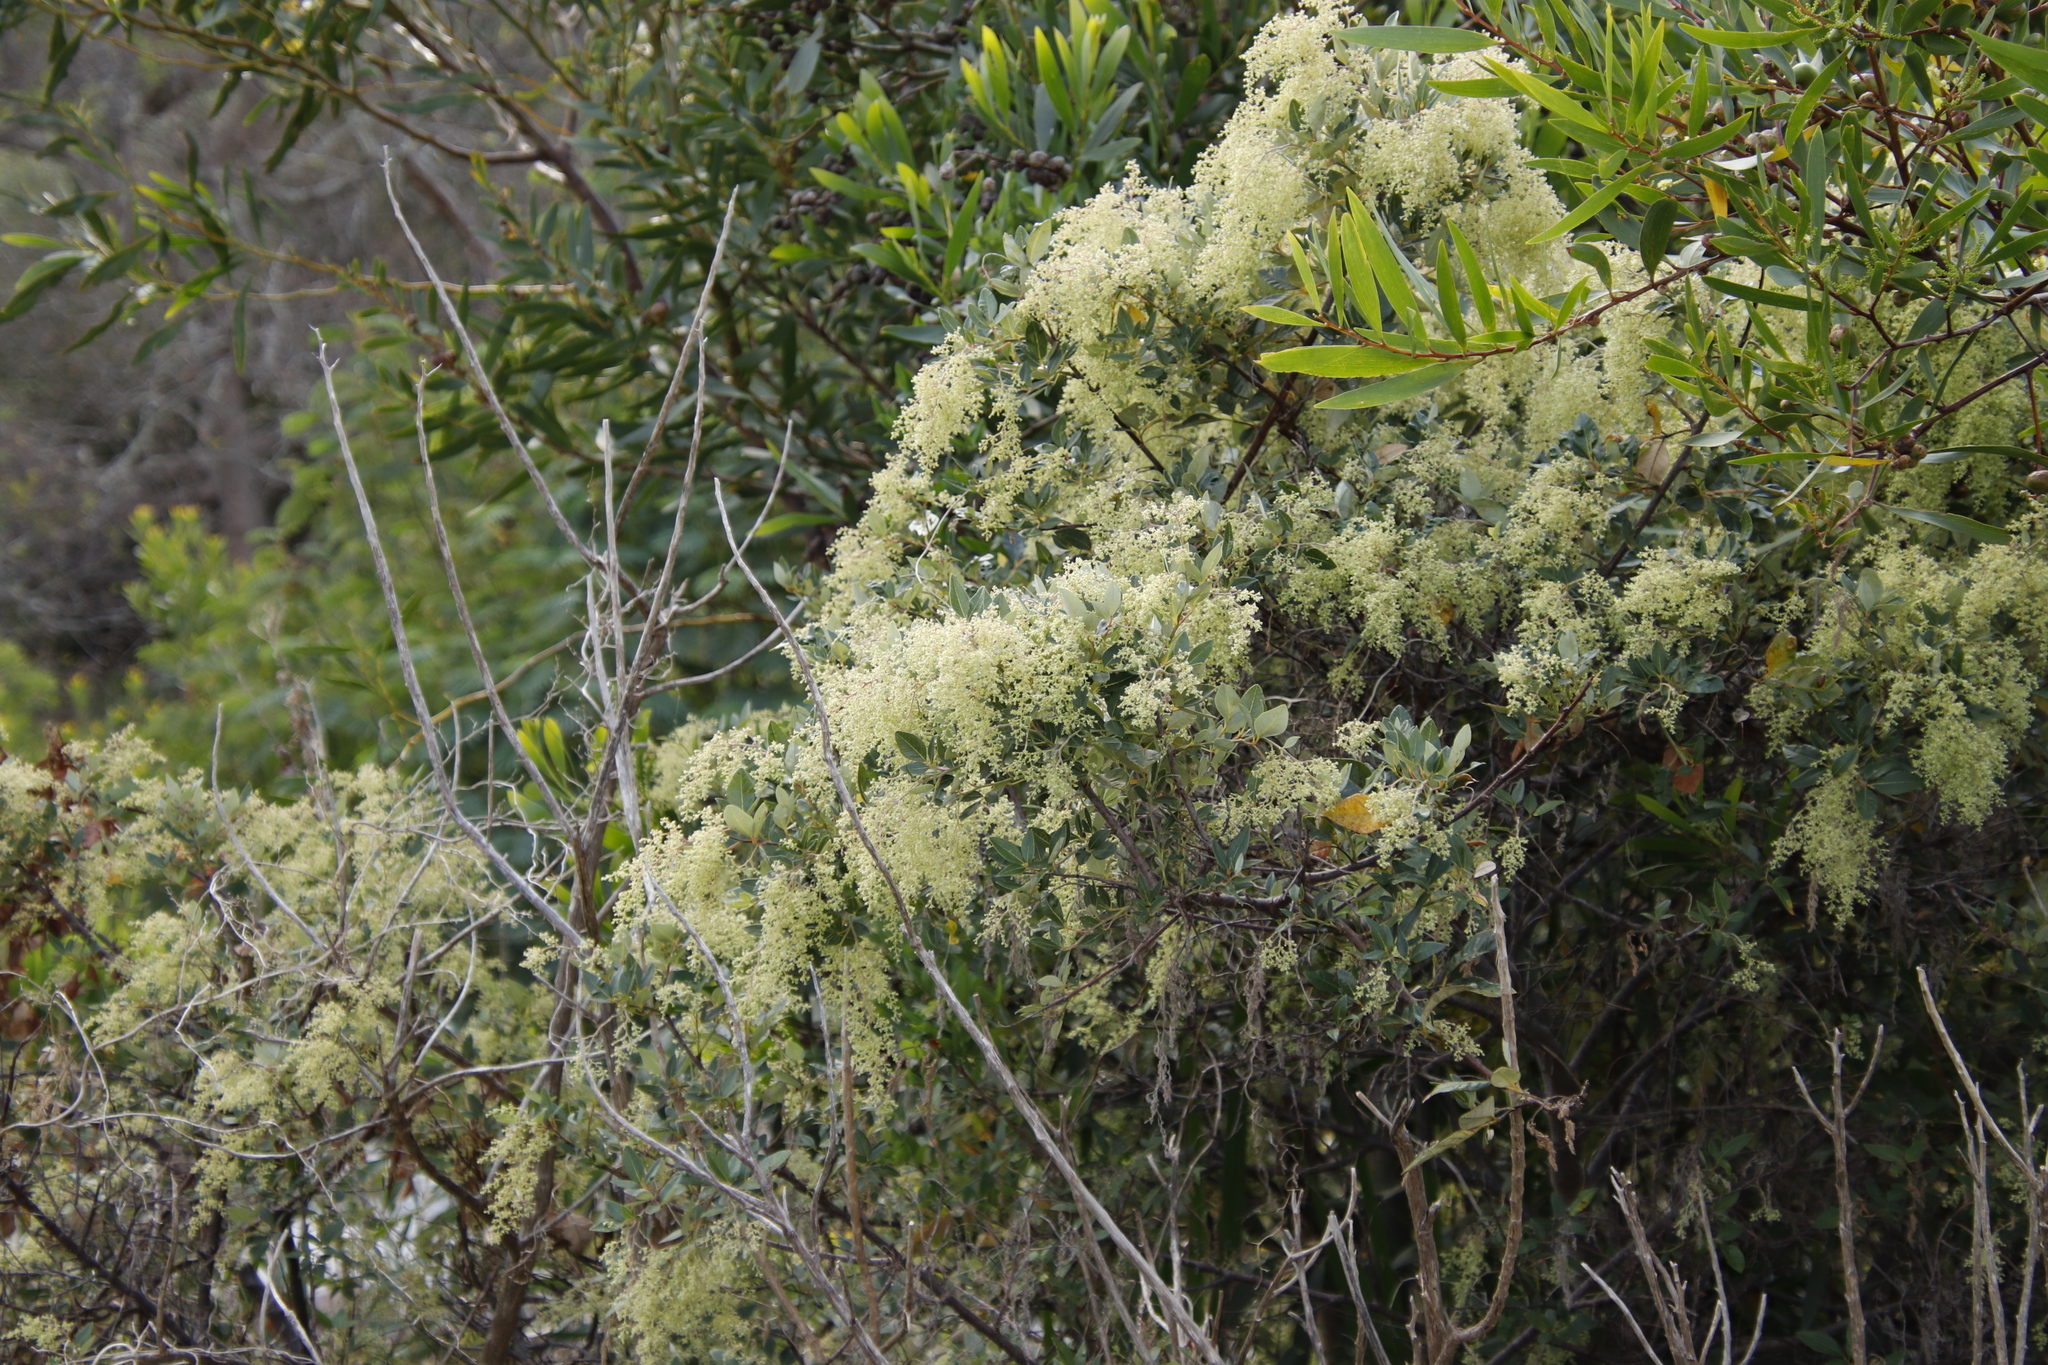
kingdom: Plantae
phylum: Tracheophyta
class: Magnoliopsida
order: Sapindales
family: Anacardiaceae
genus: Searsia
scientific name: Searsia tomentosa
